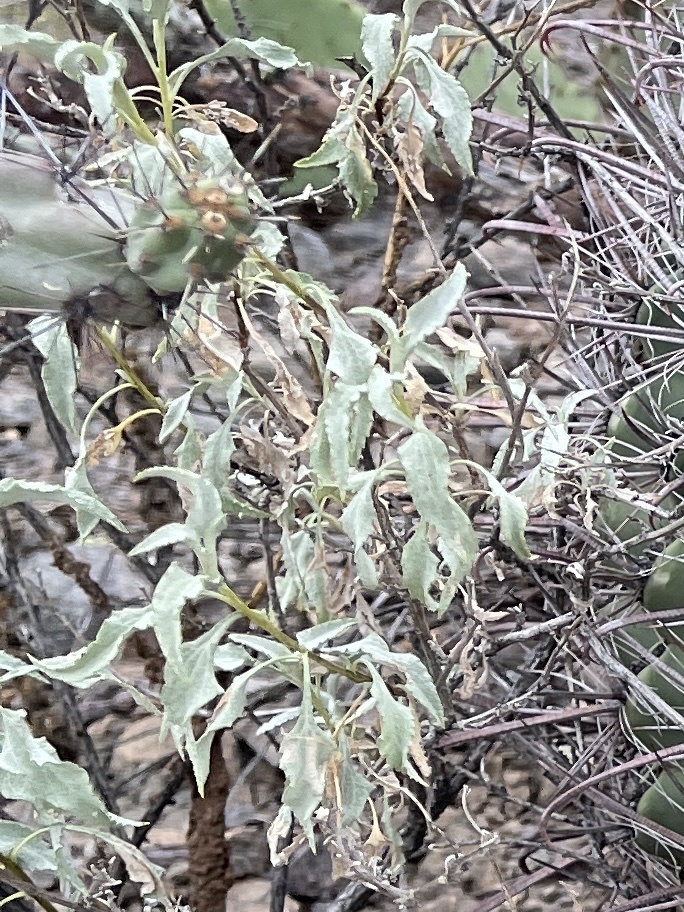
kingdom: Plantae
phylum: Tracheophyta
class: Magnoliopsida
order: Asterales
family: Asteraceae
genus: Encelia
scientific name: Encelia farinosa
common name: Brittlebush
